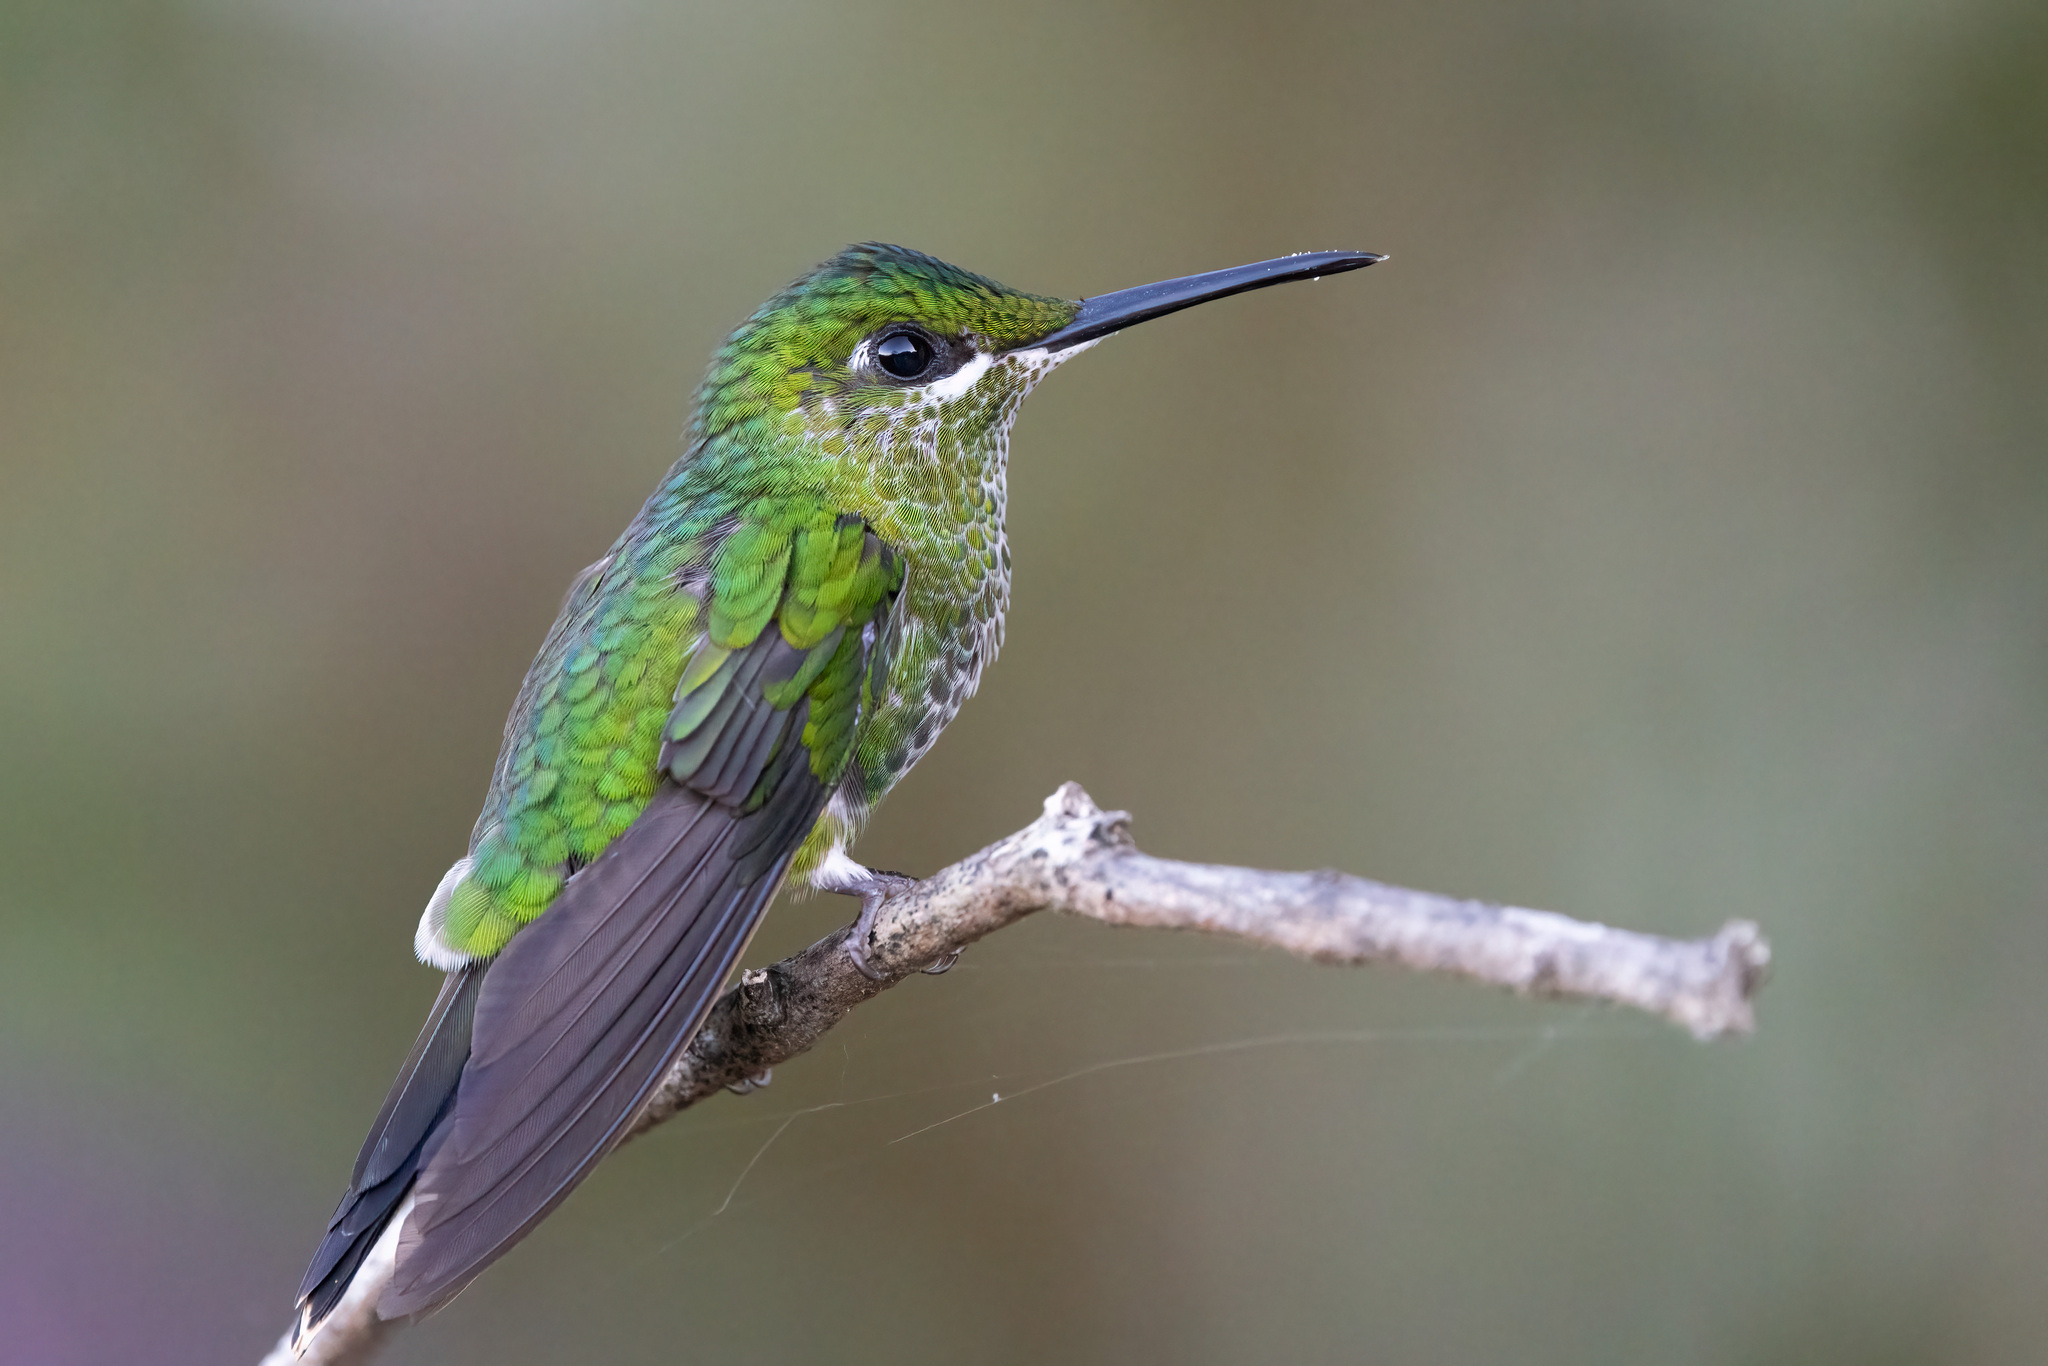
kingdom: Animalia
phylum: Chordata
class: Aves
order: Apodiformes
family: Trochilidae
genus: Heliodoxa
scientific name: Heliodoxa jacula
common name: Green-crowned brilliant
